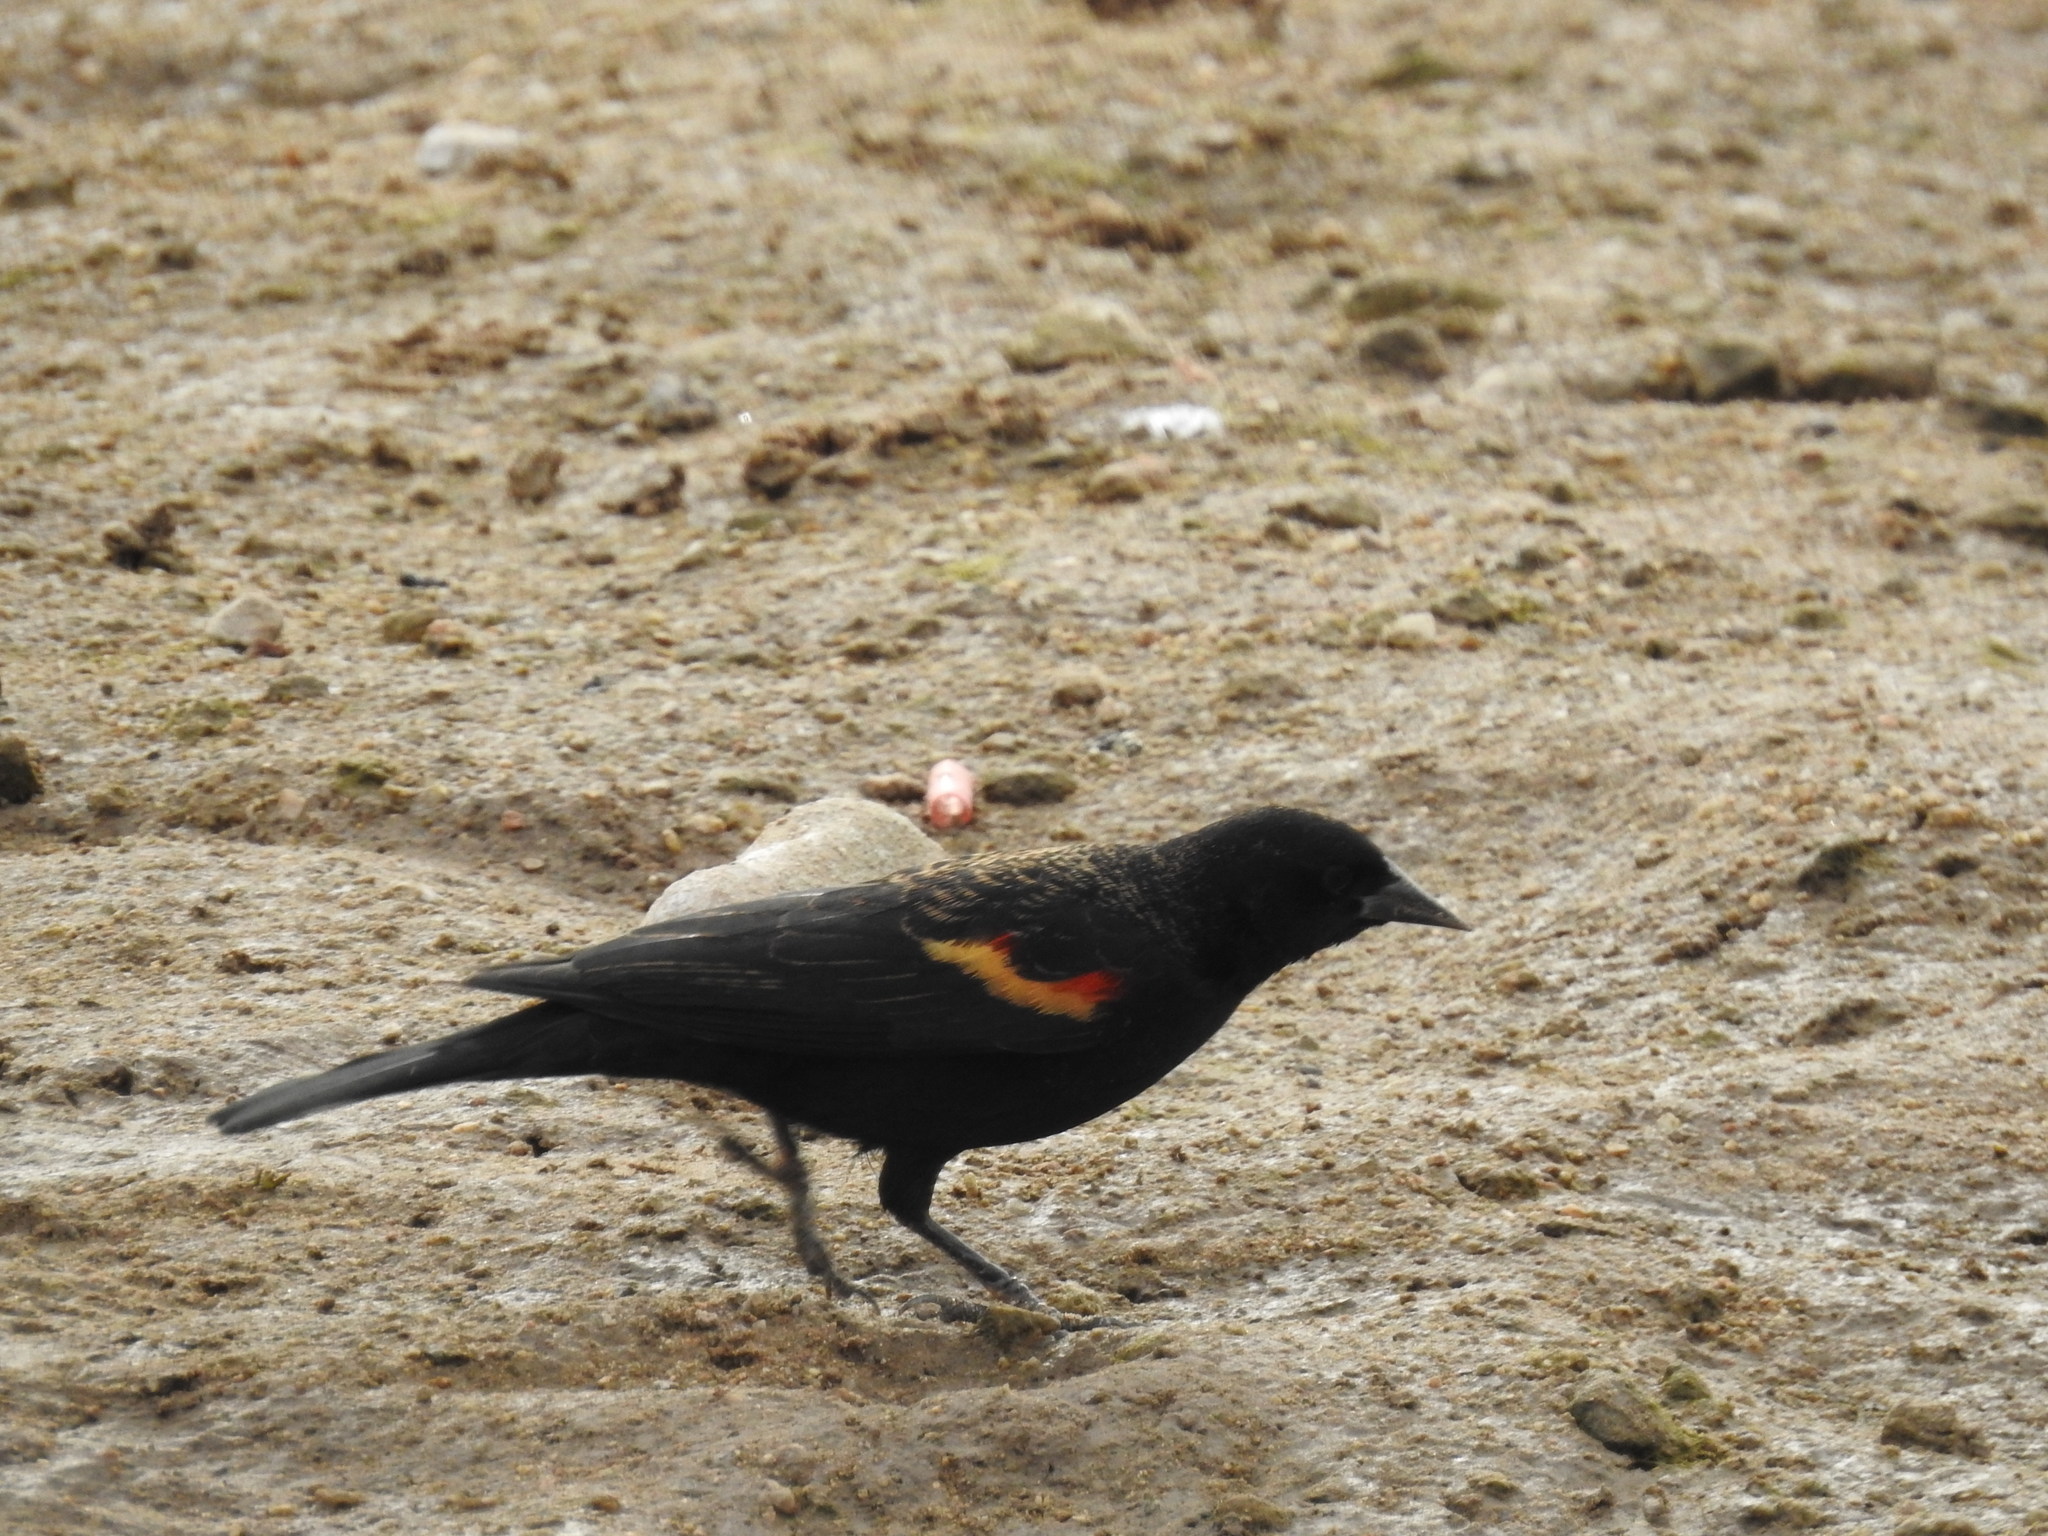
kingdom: Animalia
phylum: Chordata
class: Aves
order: Passeriformes
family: Icteridae
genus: Agelaius
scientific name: Agelaius phoeniceus
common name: Red-winged blackbird
